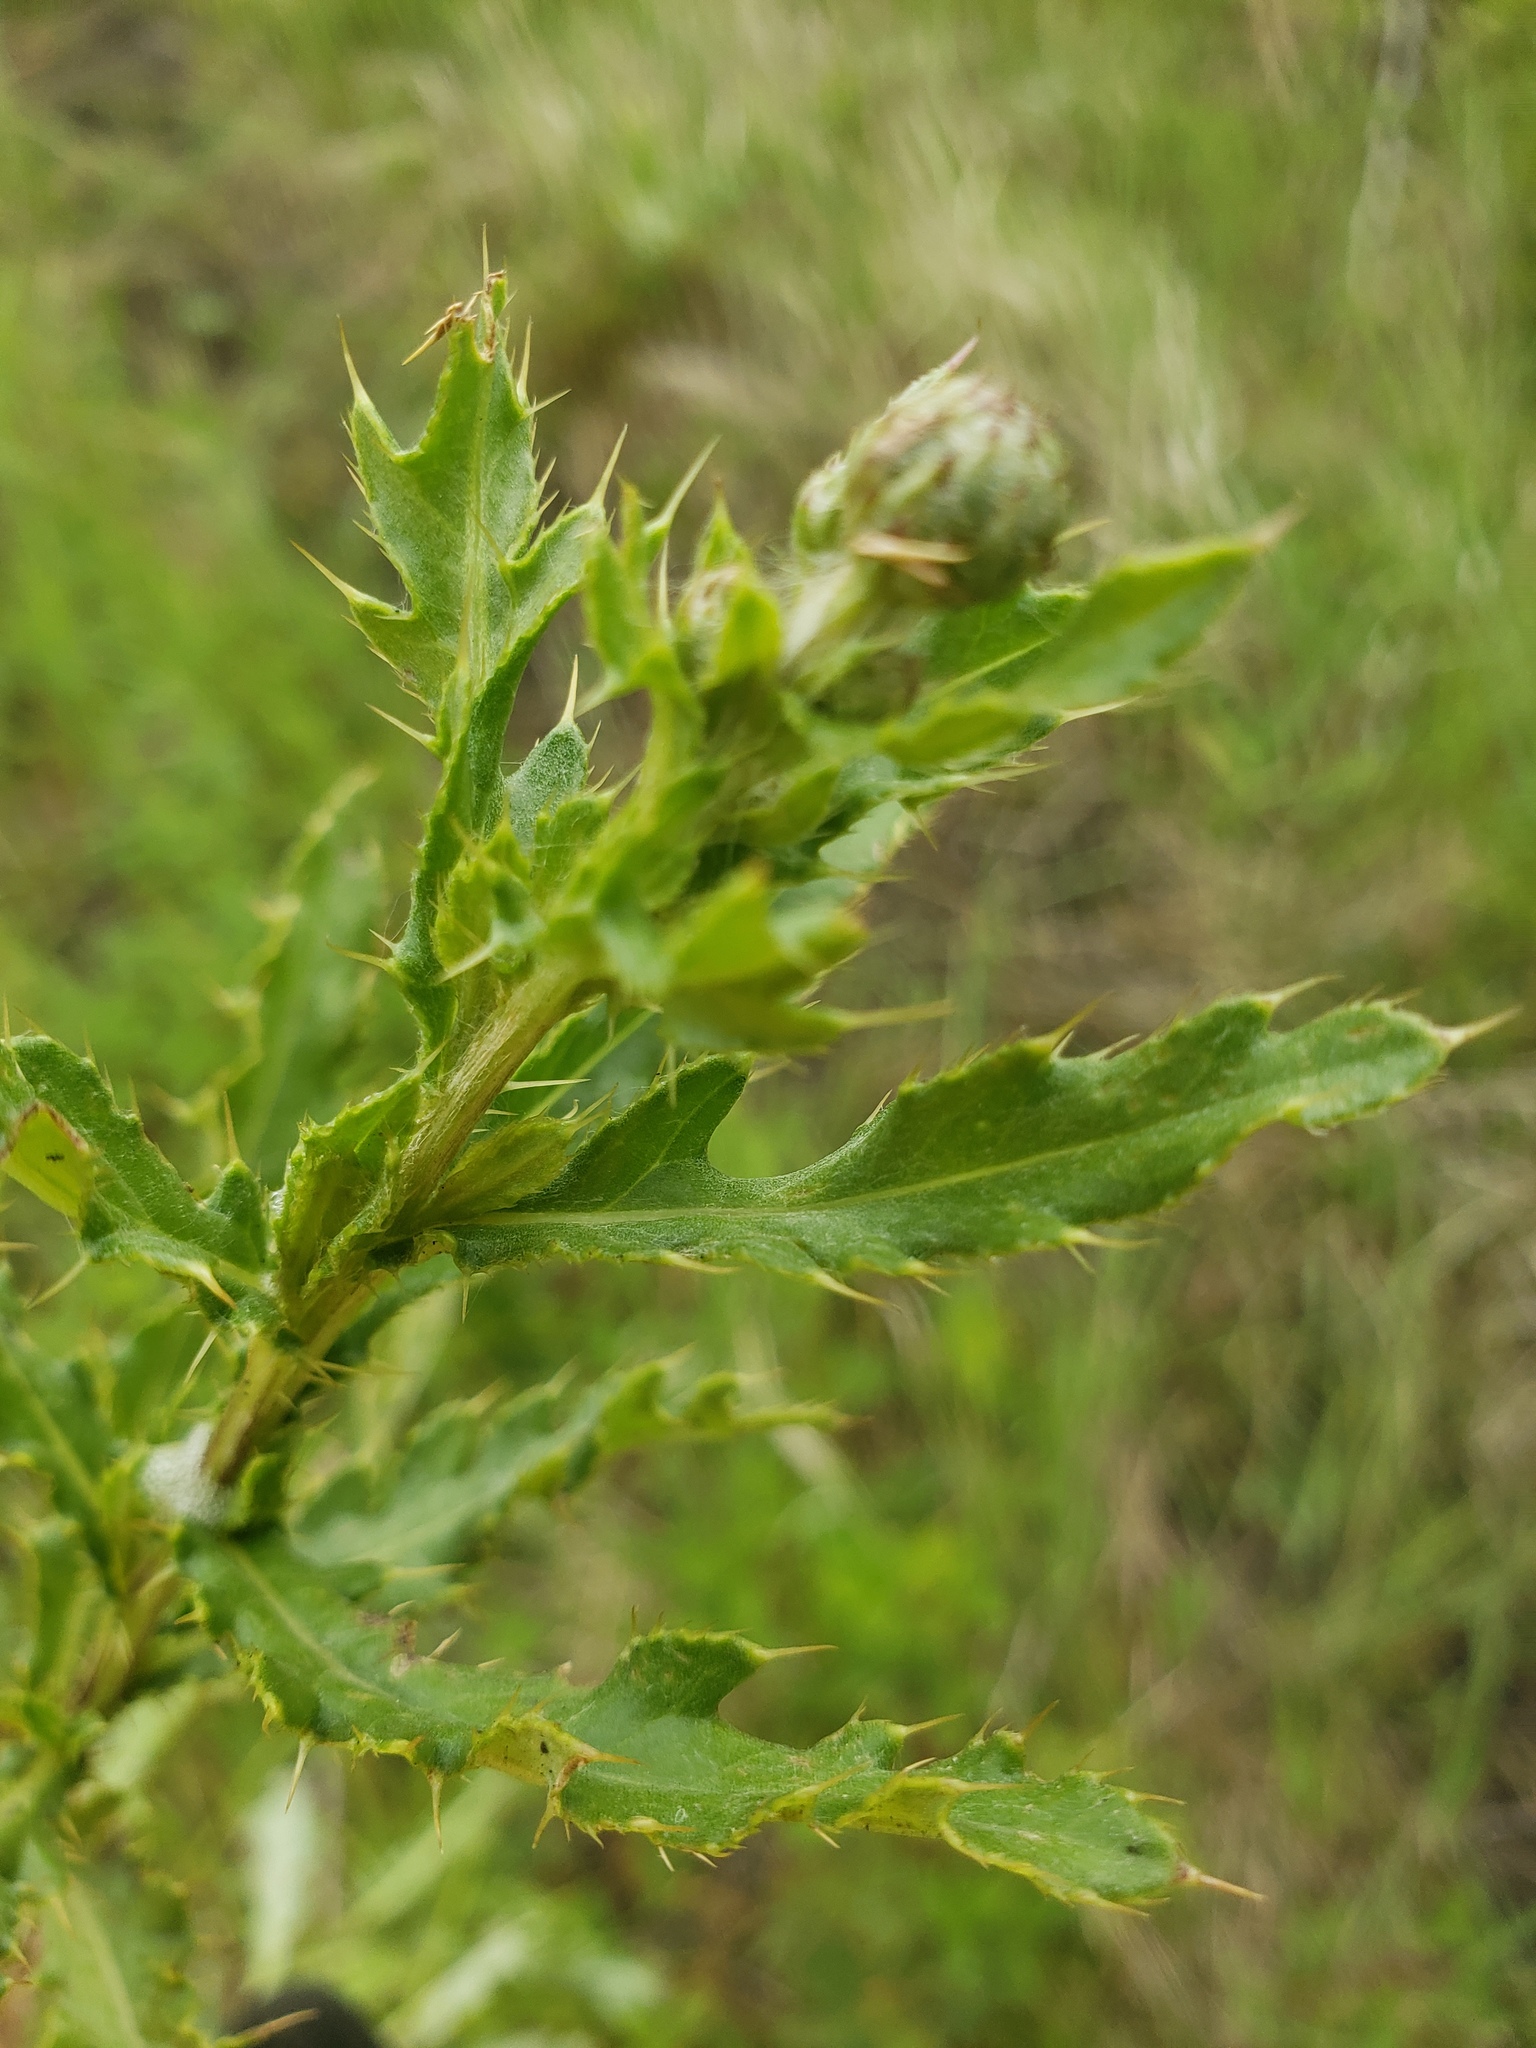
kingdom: Plantae
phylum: Tracheophyta
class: Magnoliopsida
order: Asterales
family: Asteraceae
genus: Cirsium
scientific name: Cirsium arvense
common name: Creeping thistle
